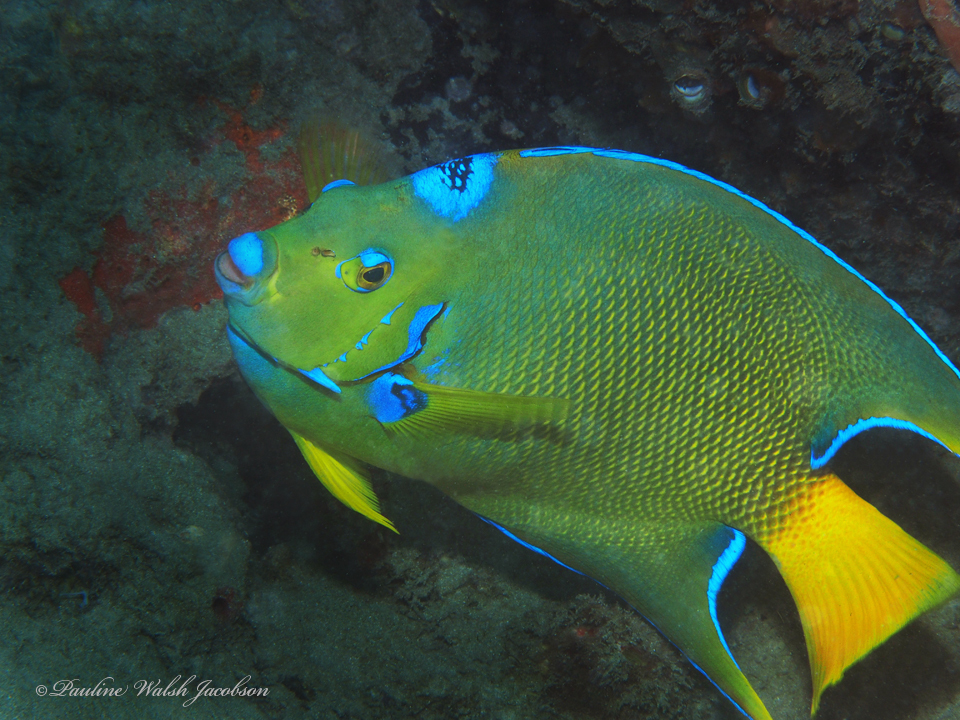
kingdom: Animalia
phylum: Chordata
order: Perciformes
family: Pomacanthidae
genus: Holacanthus
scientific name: Holacanthus ciliaris
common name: Queen angelfish
